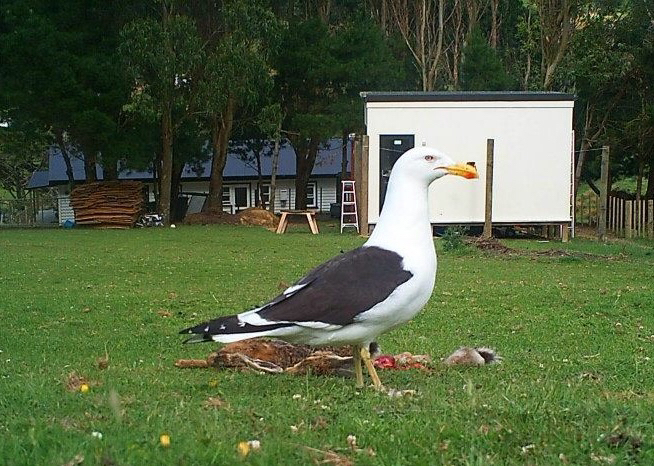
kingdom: Animalia
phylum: Chordata
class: Aves
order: Charadriiformes
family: Laridae
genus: Larus
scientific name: Larus dominicanus
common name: Kelp gull
